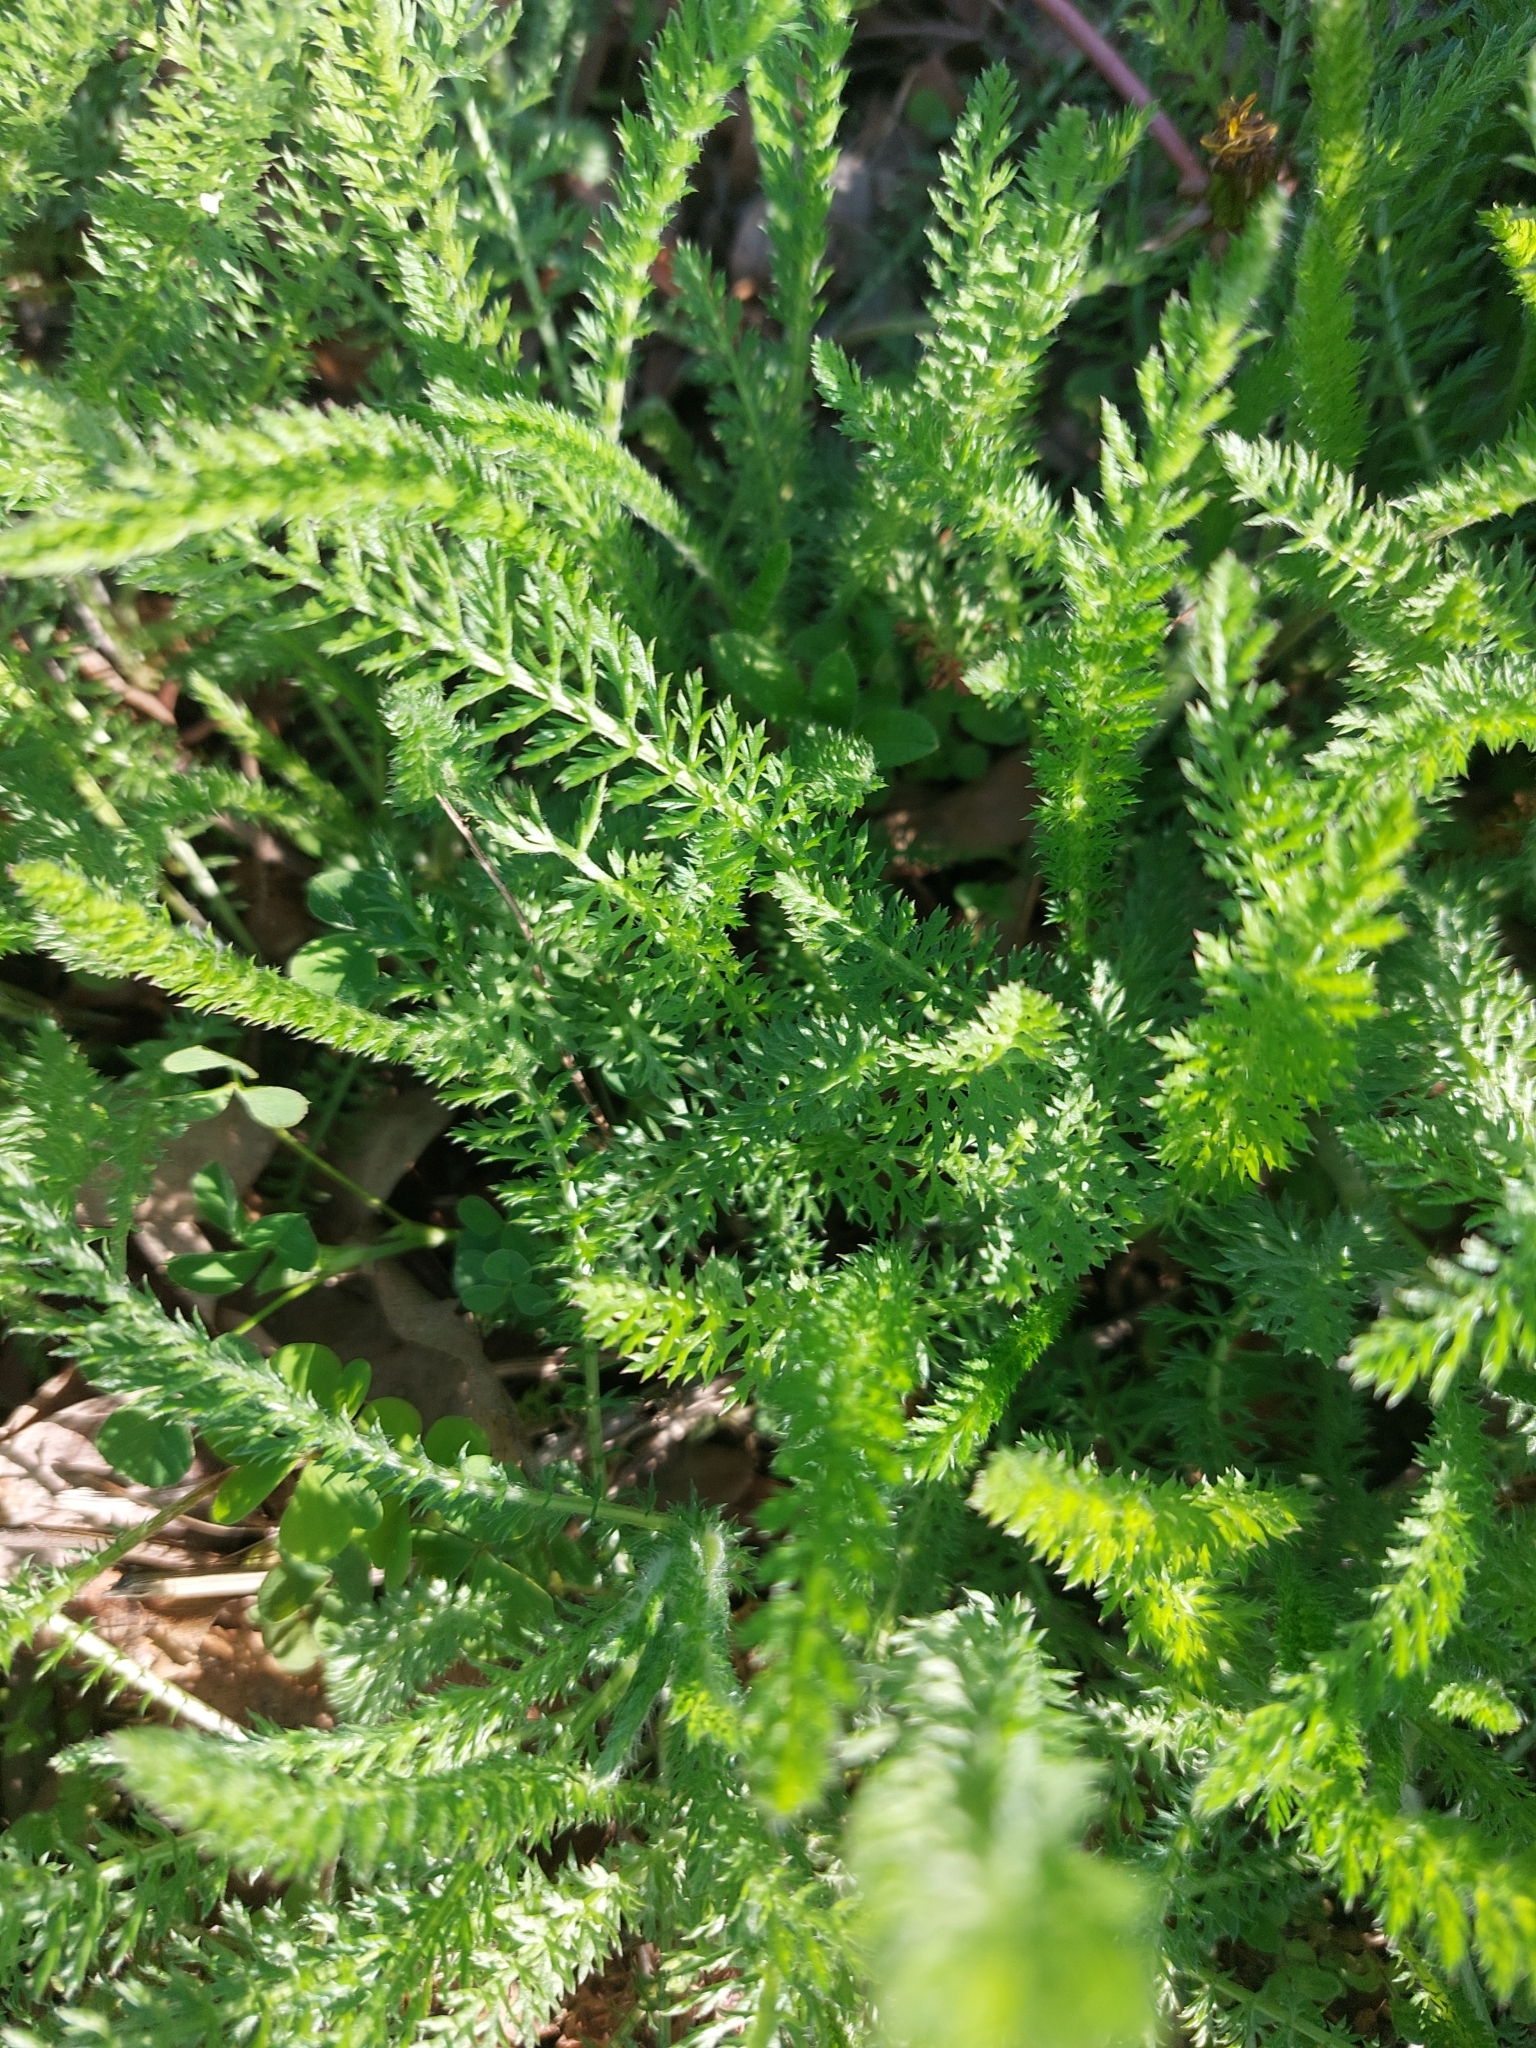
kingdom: Plantae
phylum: Tracheophyta
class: Magnoliopsida
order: Asterales
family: Asteraceae
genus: Achillea
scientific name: Achillea millefolium
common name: Yarrow
